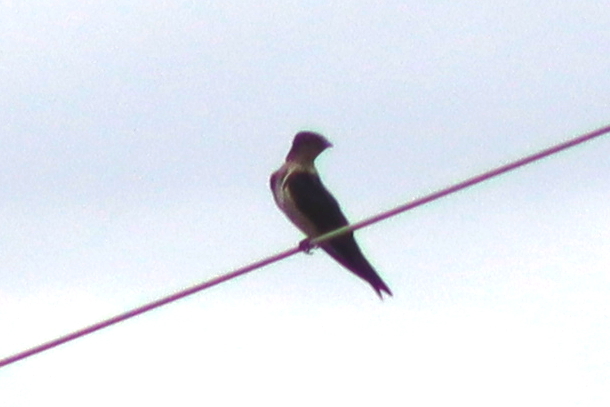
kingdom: Animalia
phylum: Chordata
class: Aves
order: Passeriformes
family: Hirundinidae
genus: Progne
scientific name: Progne chalybea
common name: Grey-breasted martin
